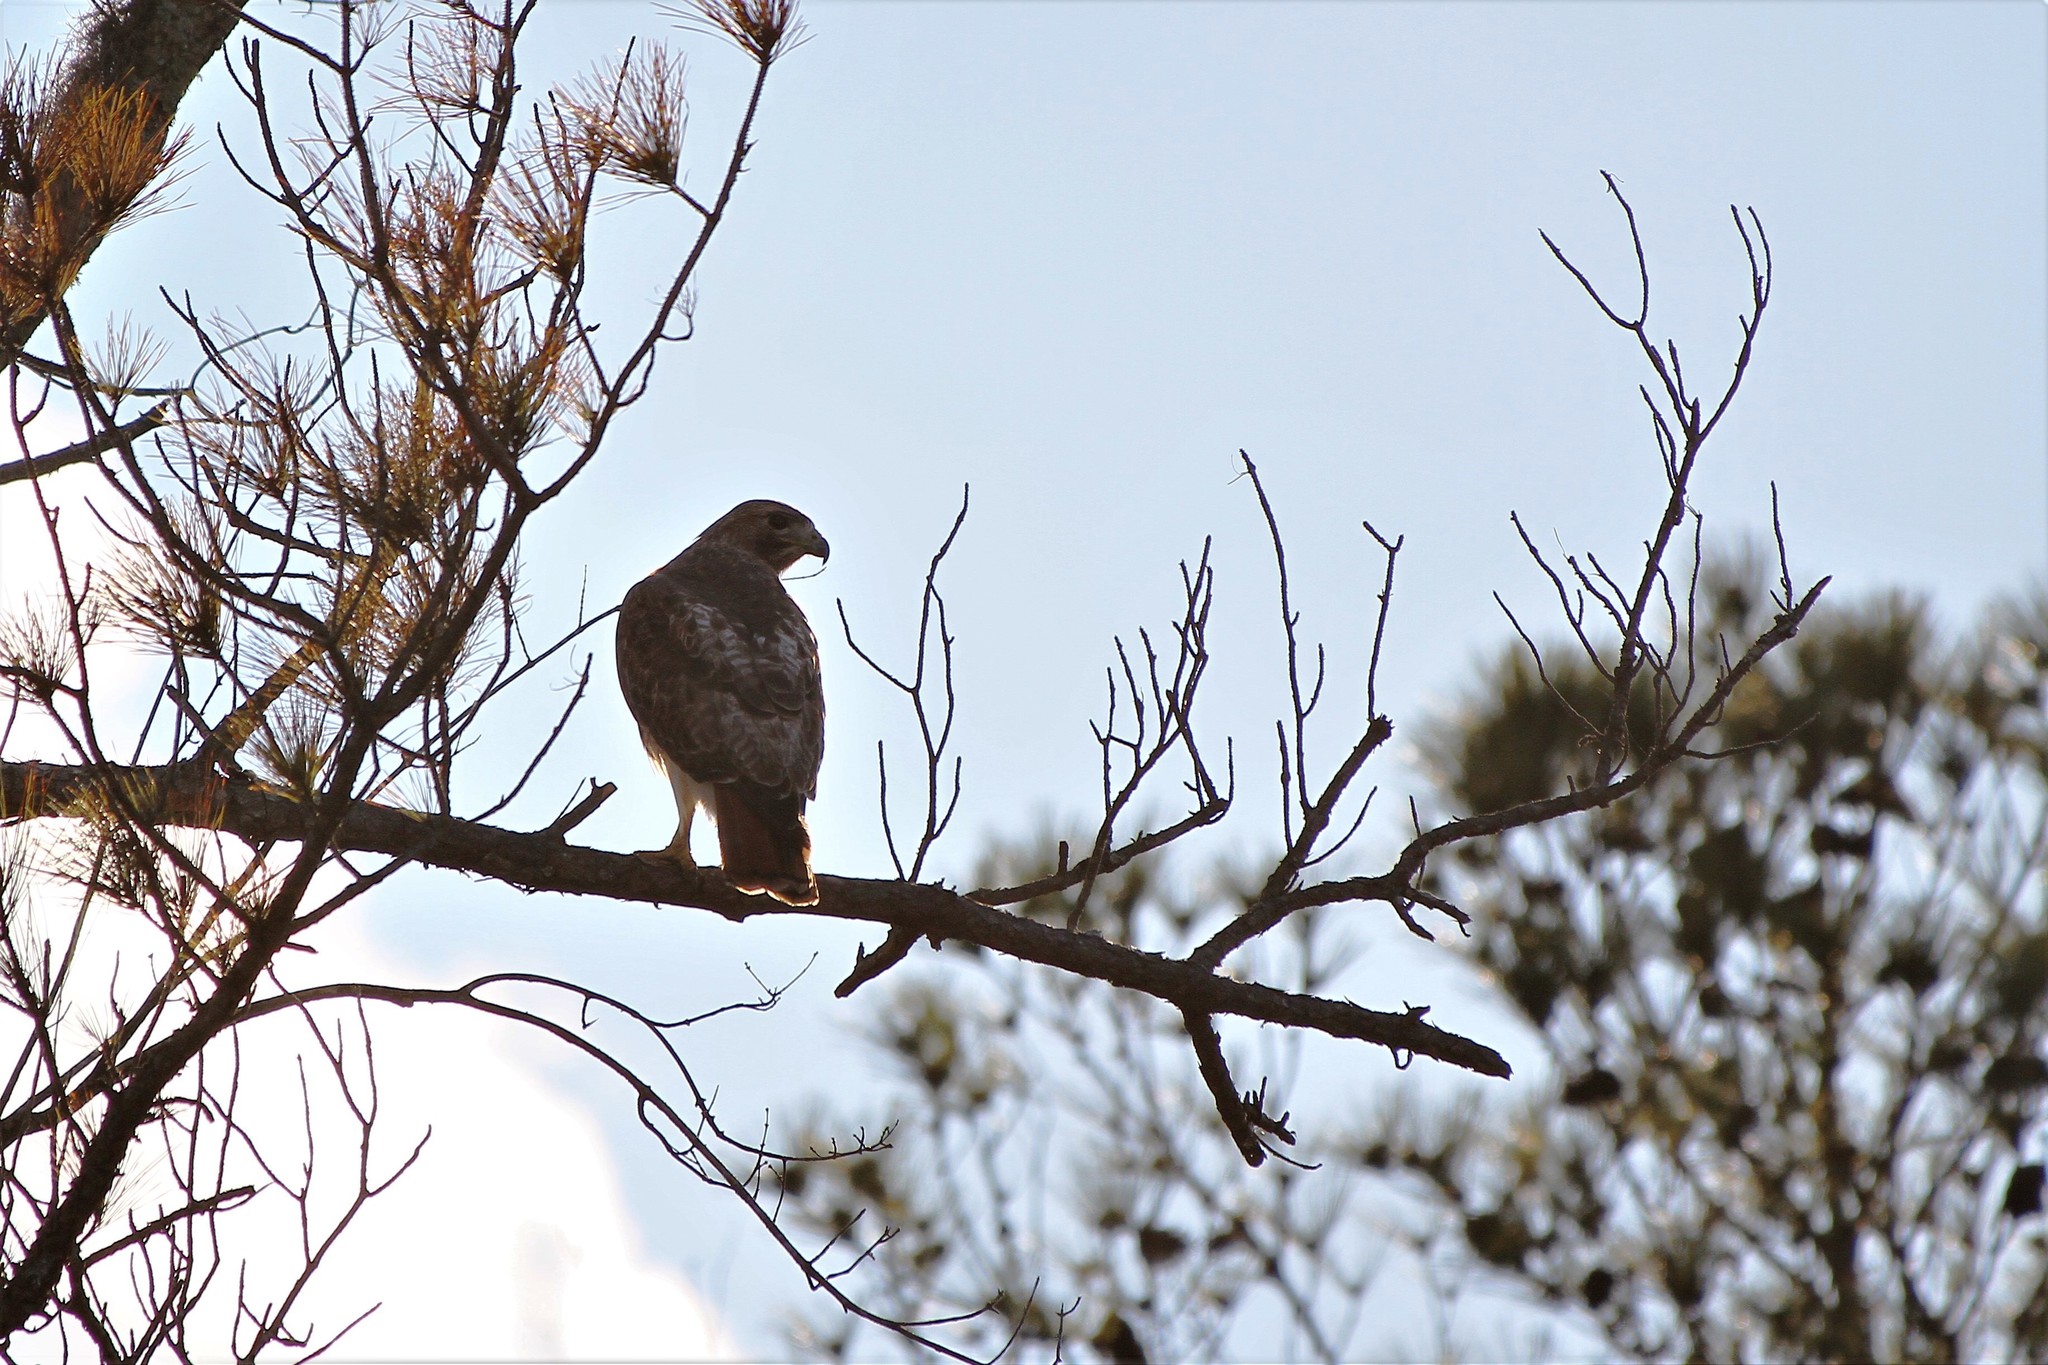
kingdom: Animalia
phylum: Chordata
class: Aves
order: Accipitriformes
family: Accipitridae
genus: Buteo
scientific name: Buteo jamaicensis
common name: Red-tailed hawk
